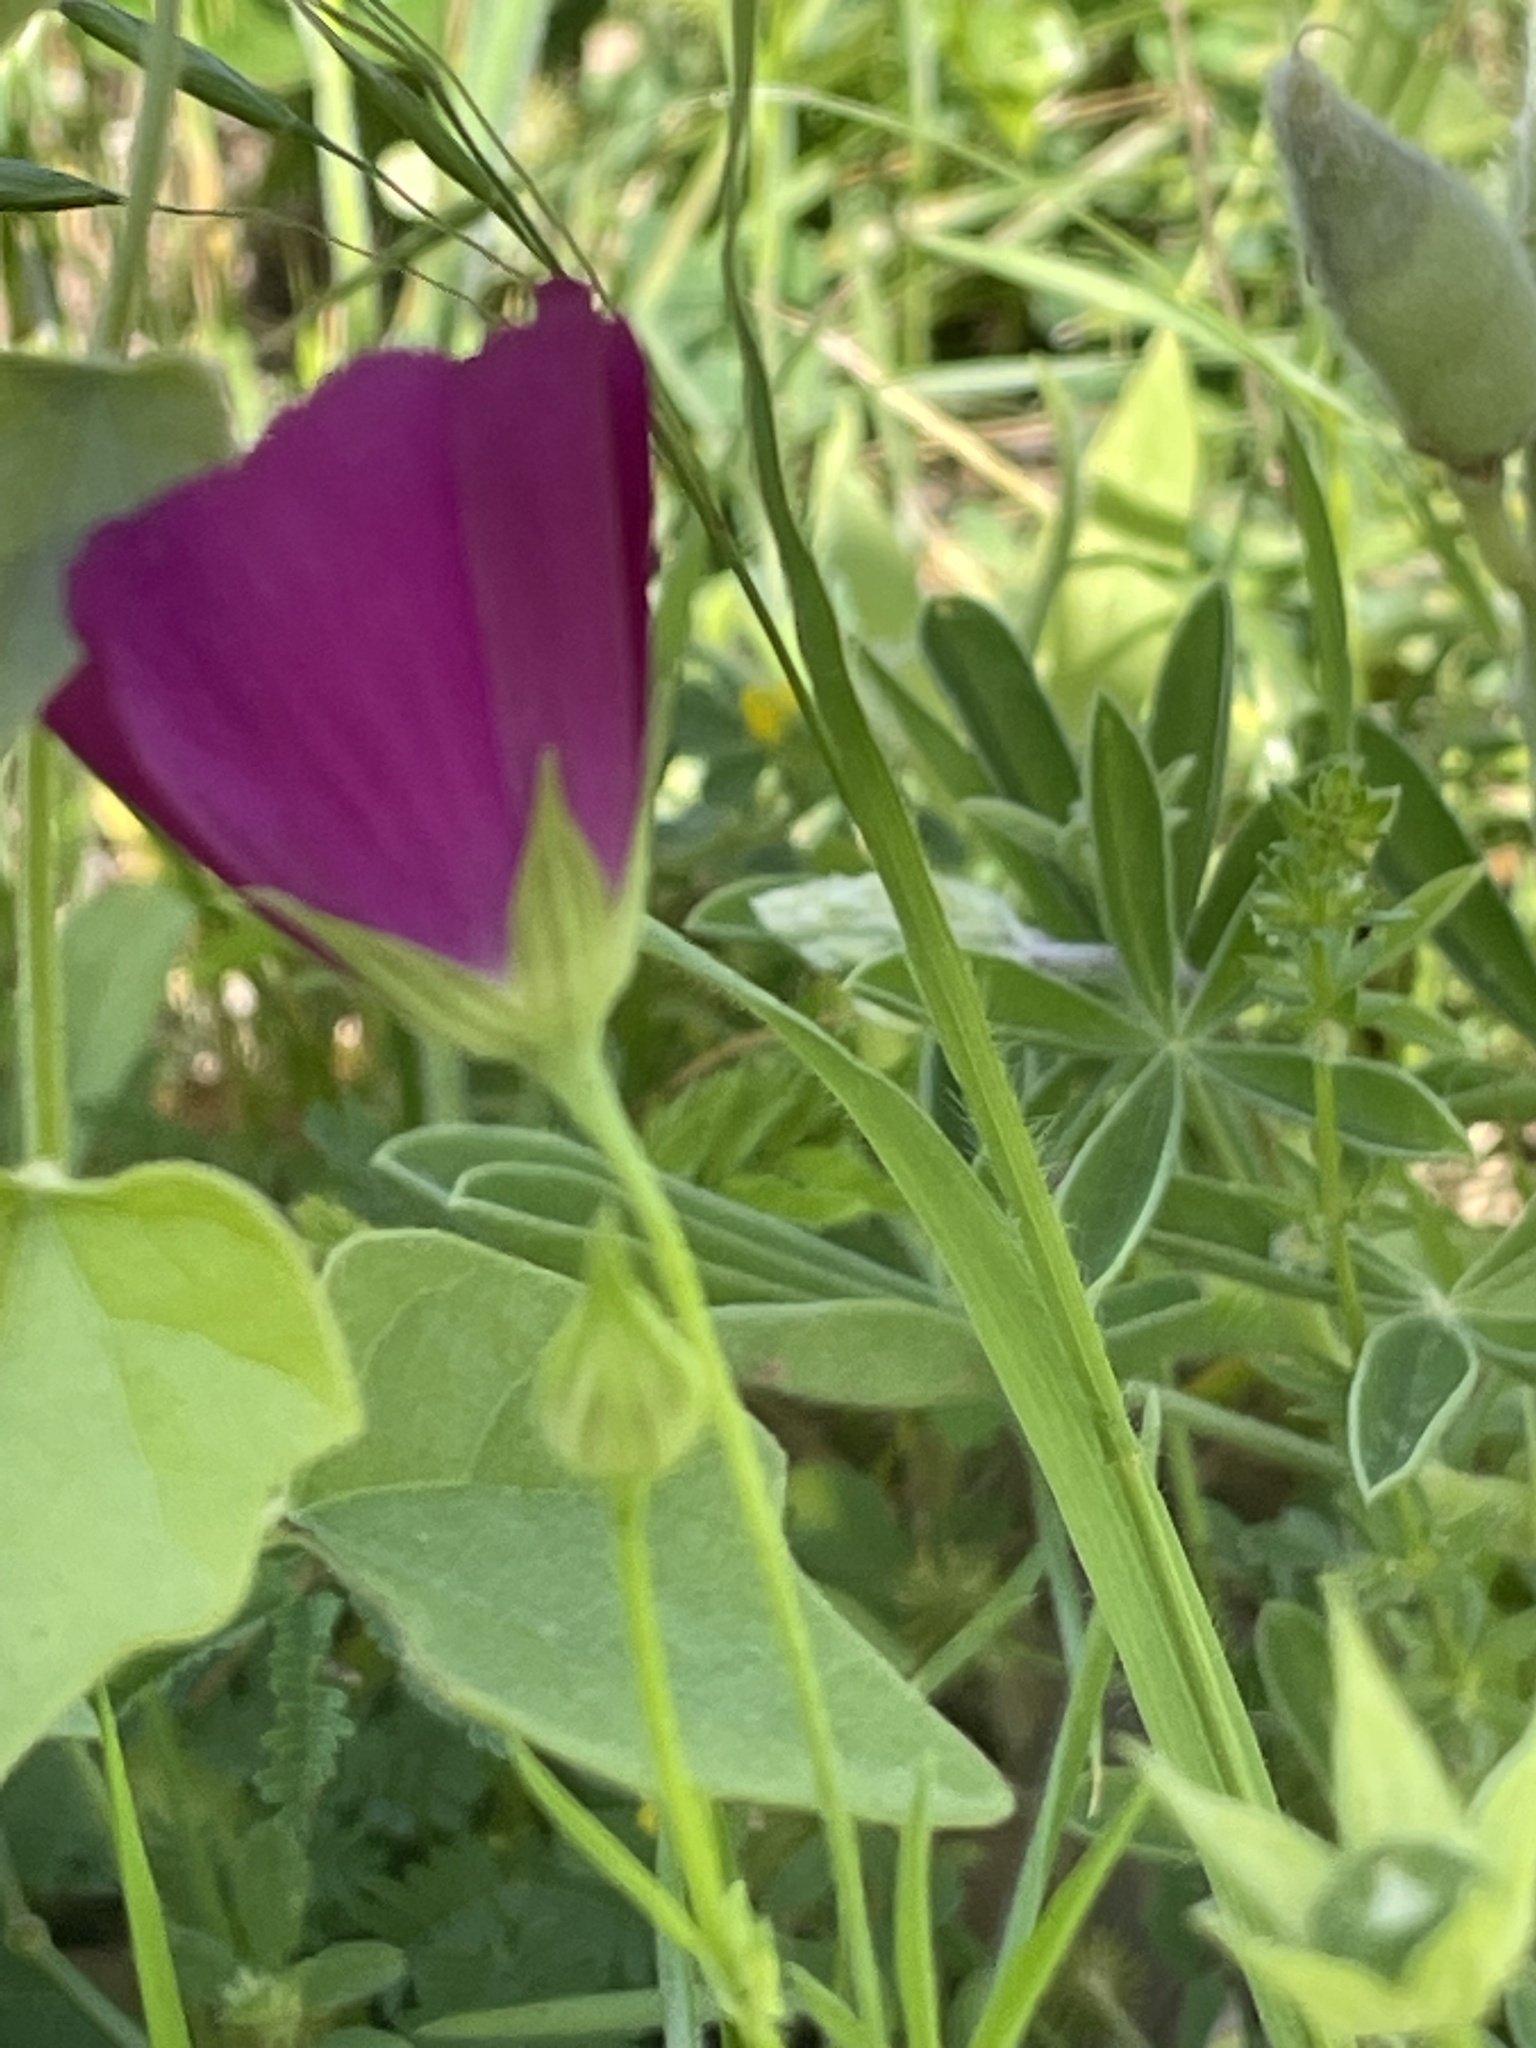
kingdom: Plantae
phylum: Tracheophyta
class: Magnoliopsida
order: Malvales
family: Malvaceae
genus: Callirhoe
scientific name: Callirhoe leiocarpa
